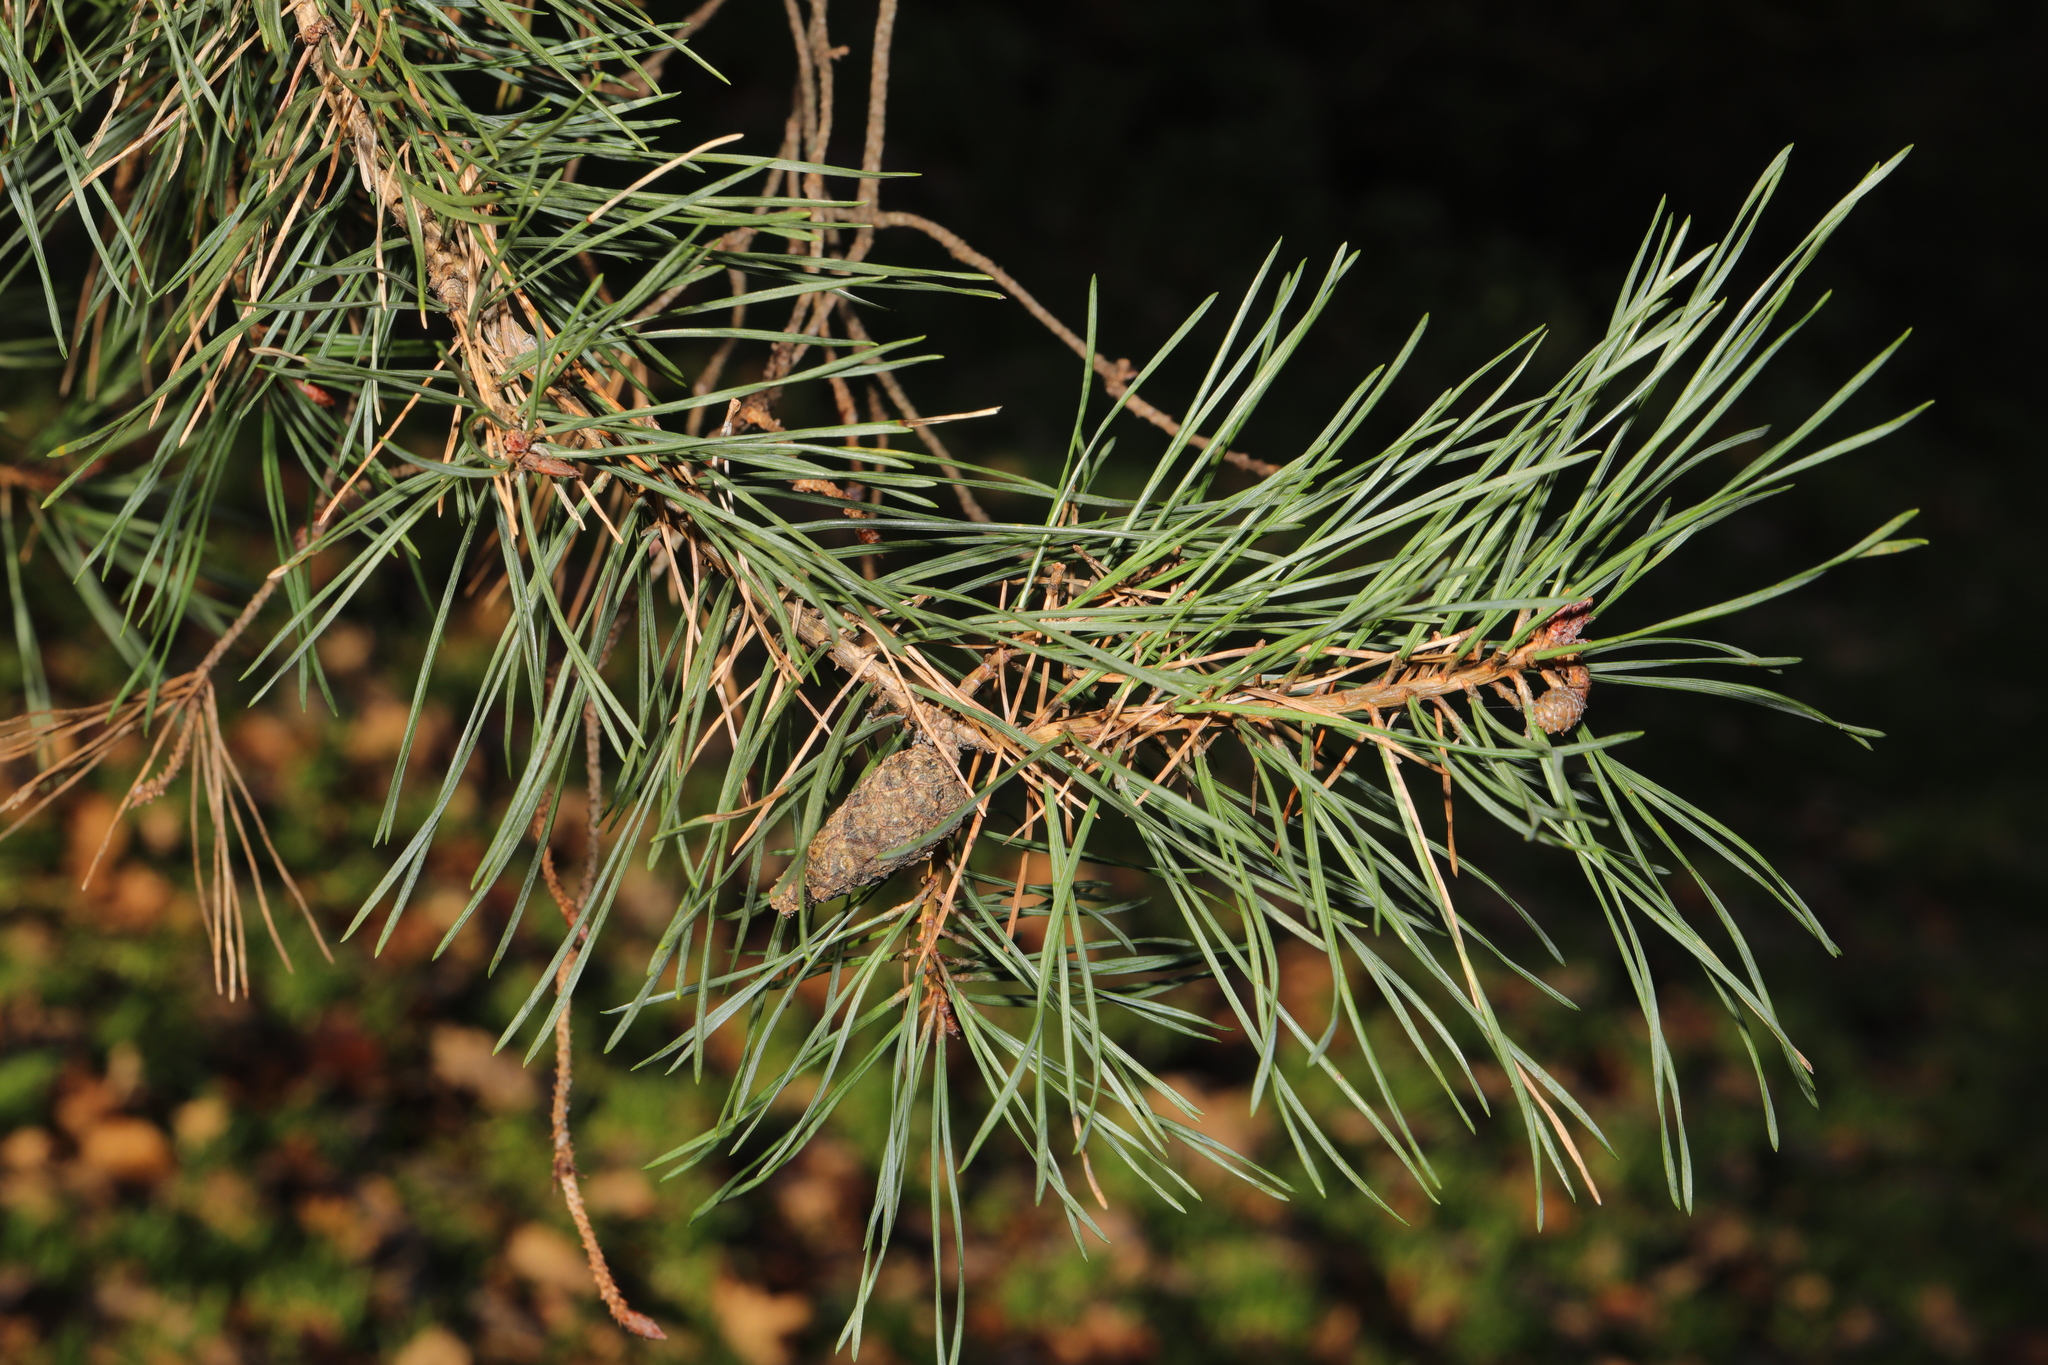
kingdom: Plantae
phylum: Tracheophyta
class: Pinopsida
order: Pinales
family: Pinaceae
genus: Pinus
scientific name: Pinus sylvestris
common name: Scots pine
